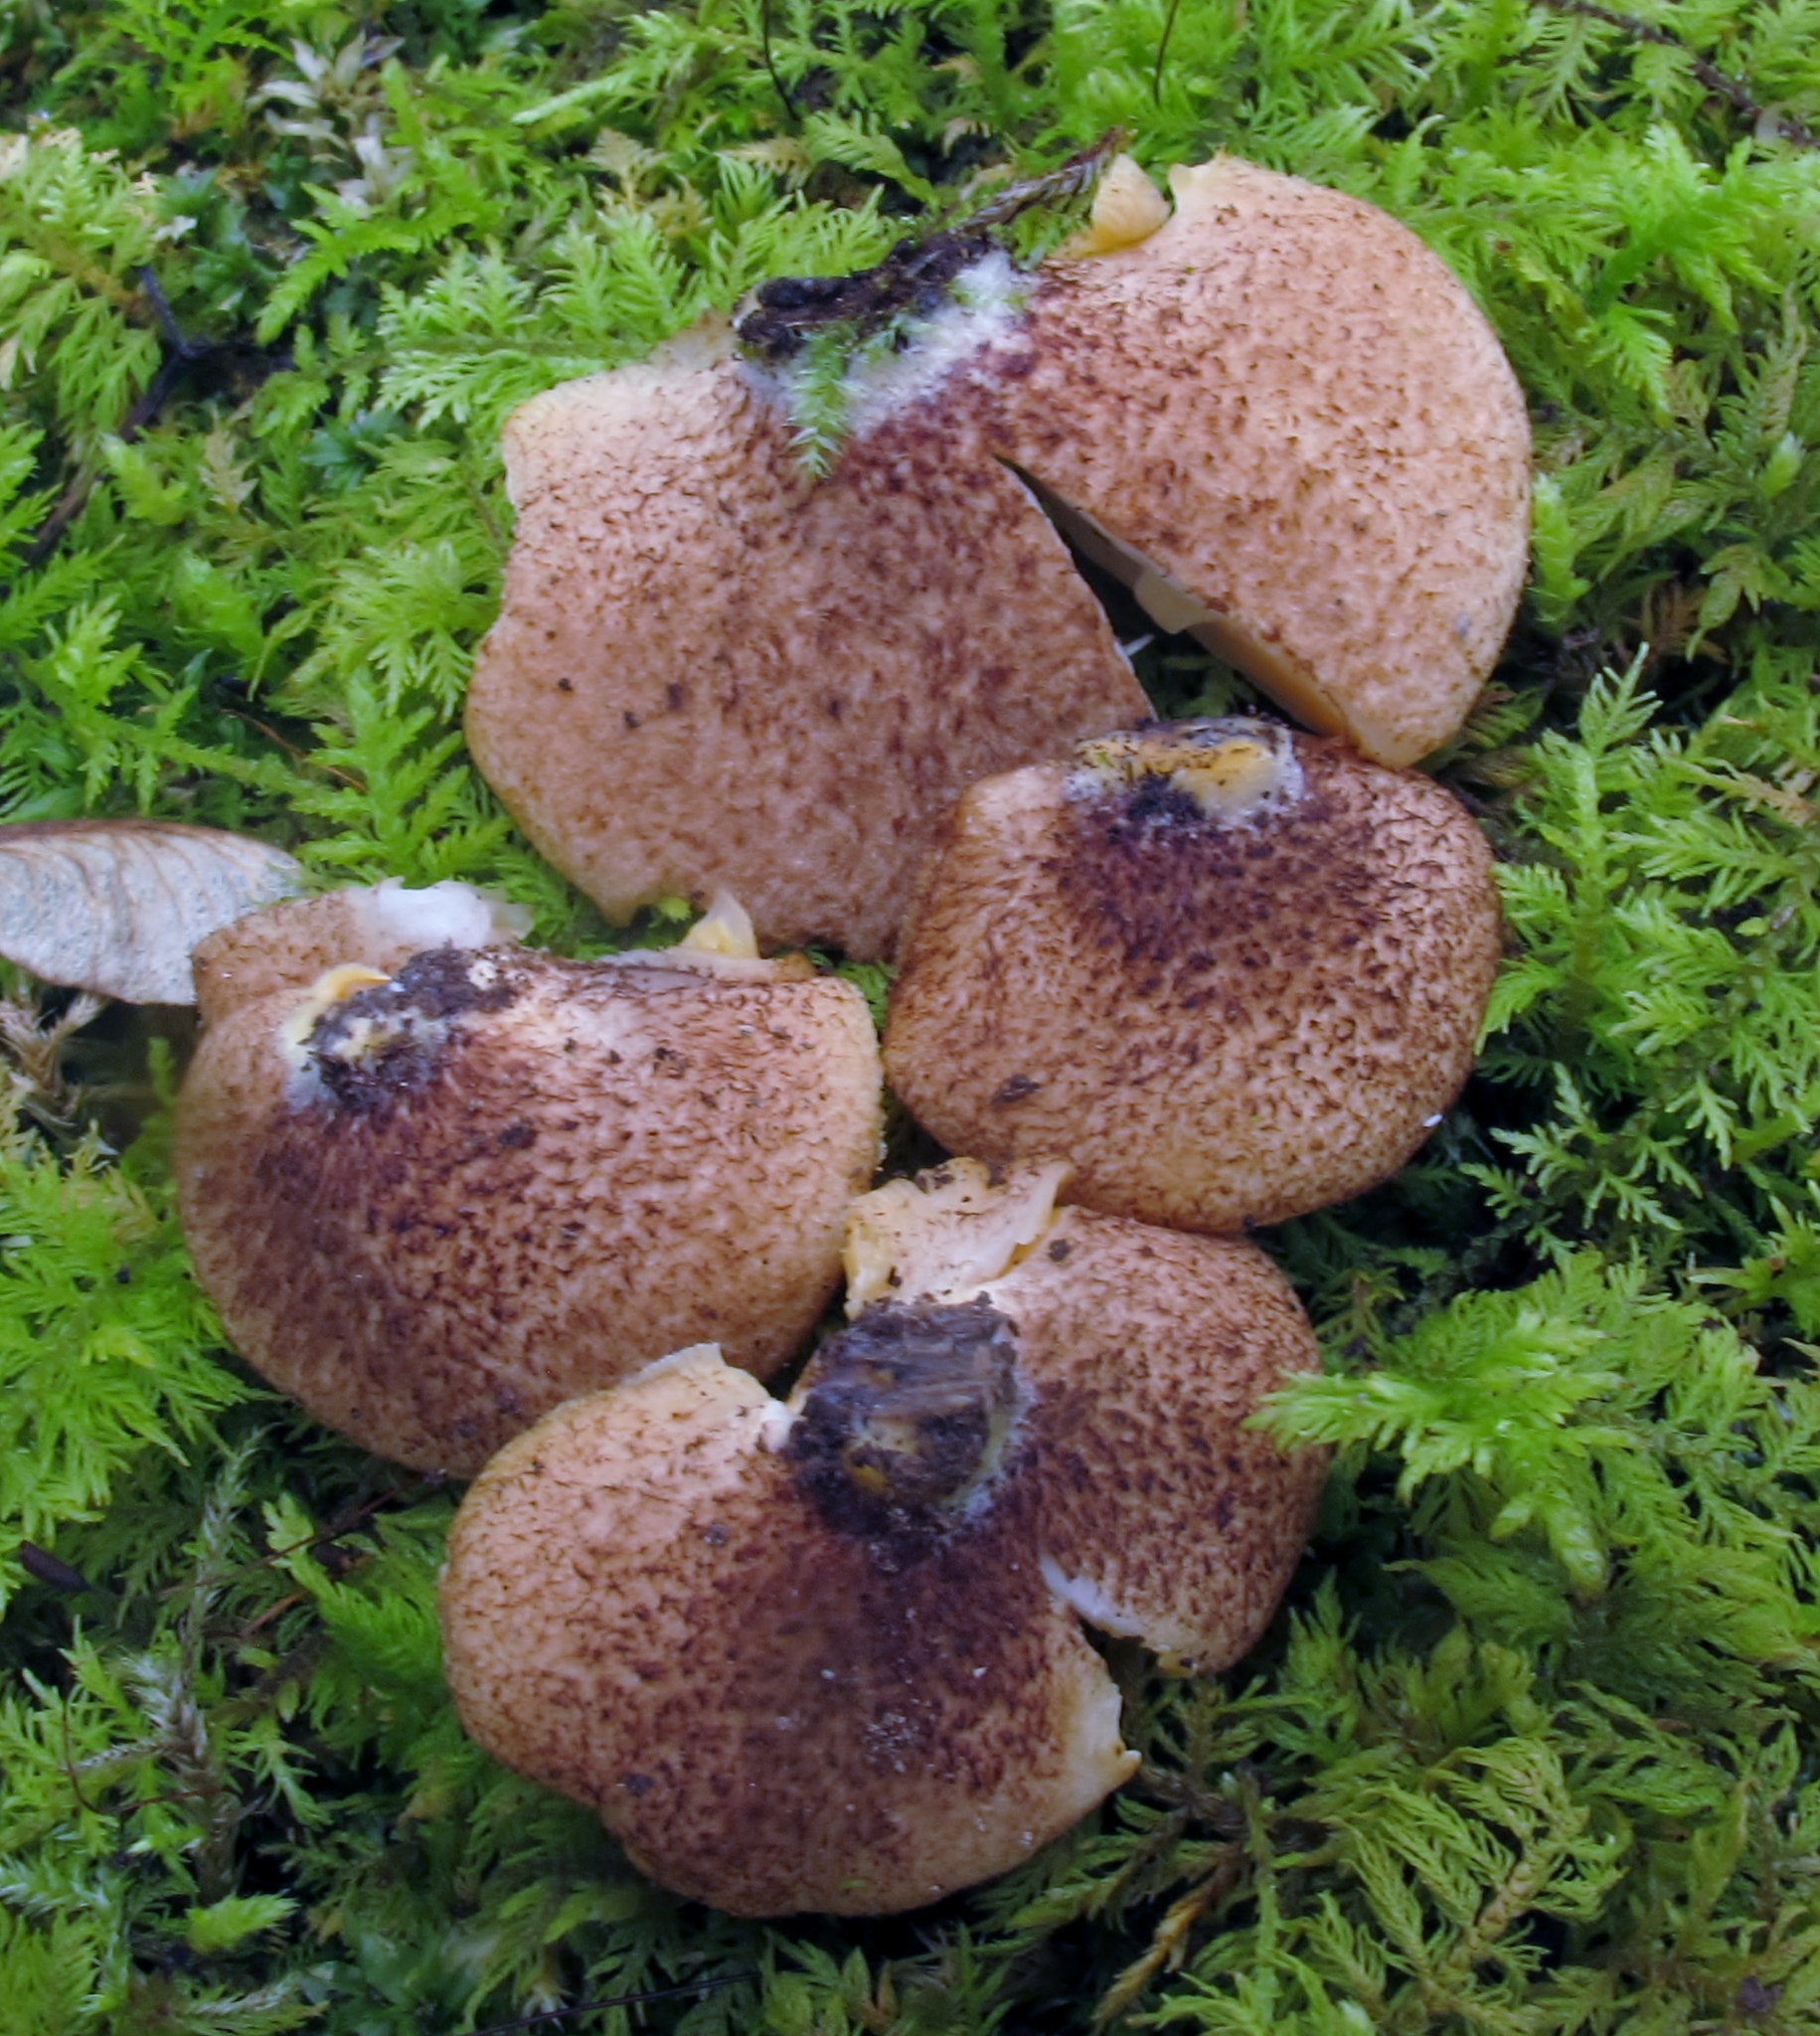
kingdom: Fungi
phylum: Basidiomycota
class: Agaricomycetes
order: Agaricales
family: Crepidotaceae
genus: Crepidotus
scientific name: Crepidotus crocophyllus
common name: Saffron oysterling
